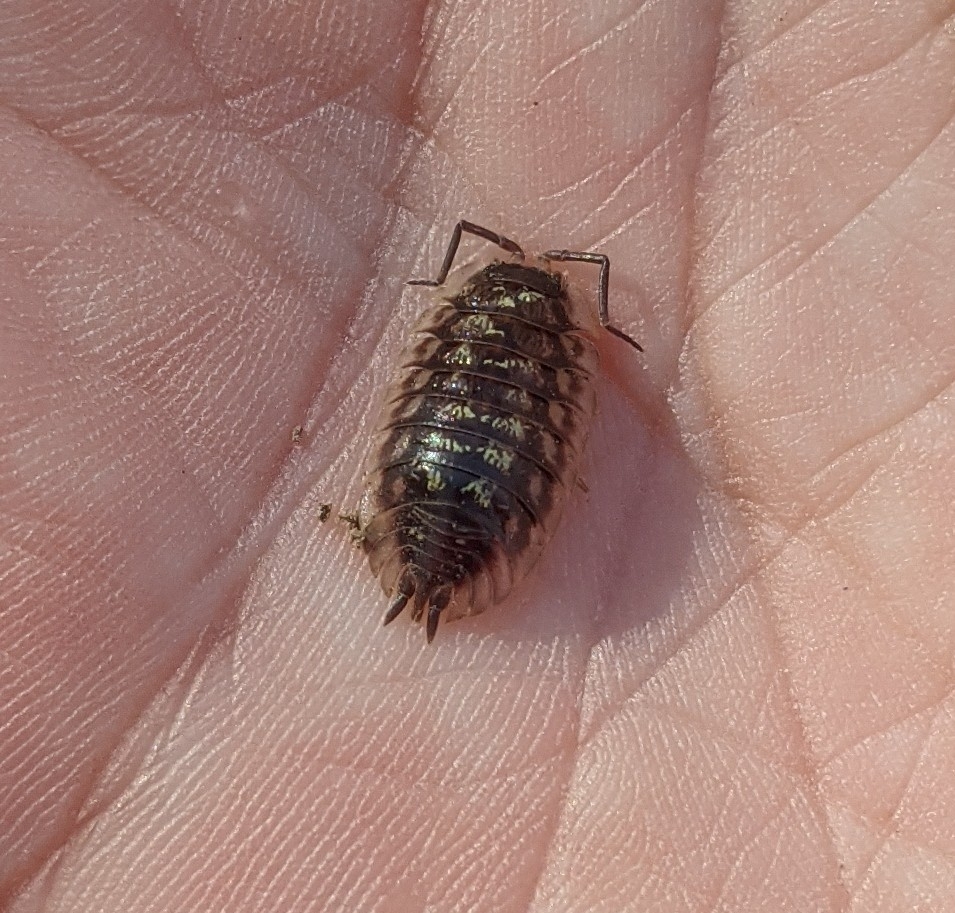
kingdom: Animalia
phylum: Arthropoda
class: Malacostraca
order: Isopoda
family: Oniscidae
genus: Oniscus
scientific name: Oniscus asellus
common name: Common shiny woodlouse
